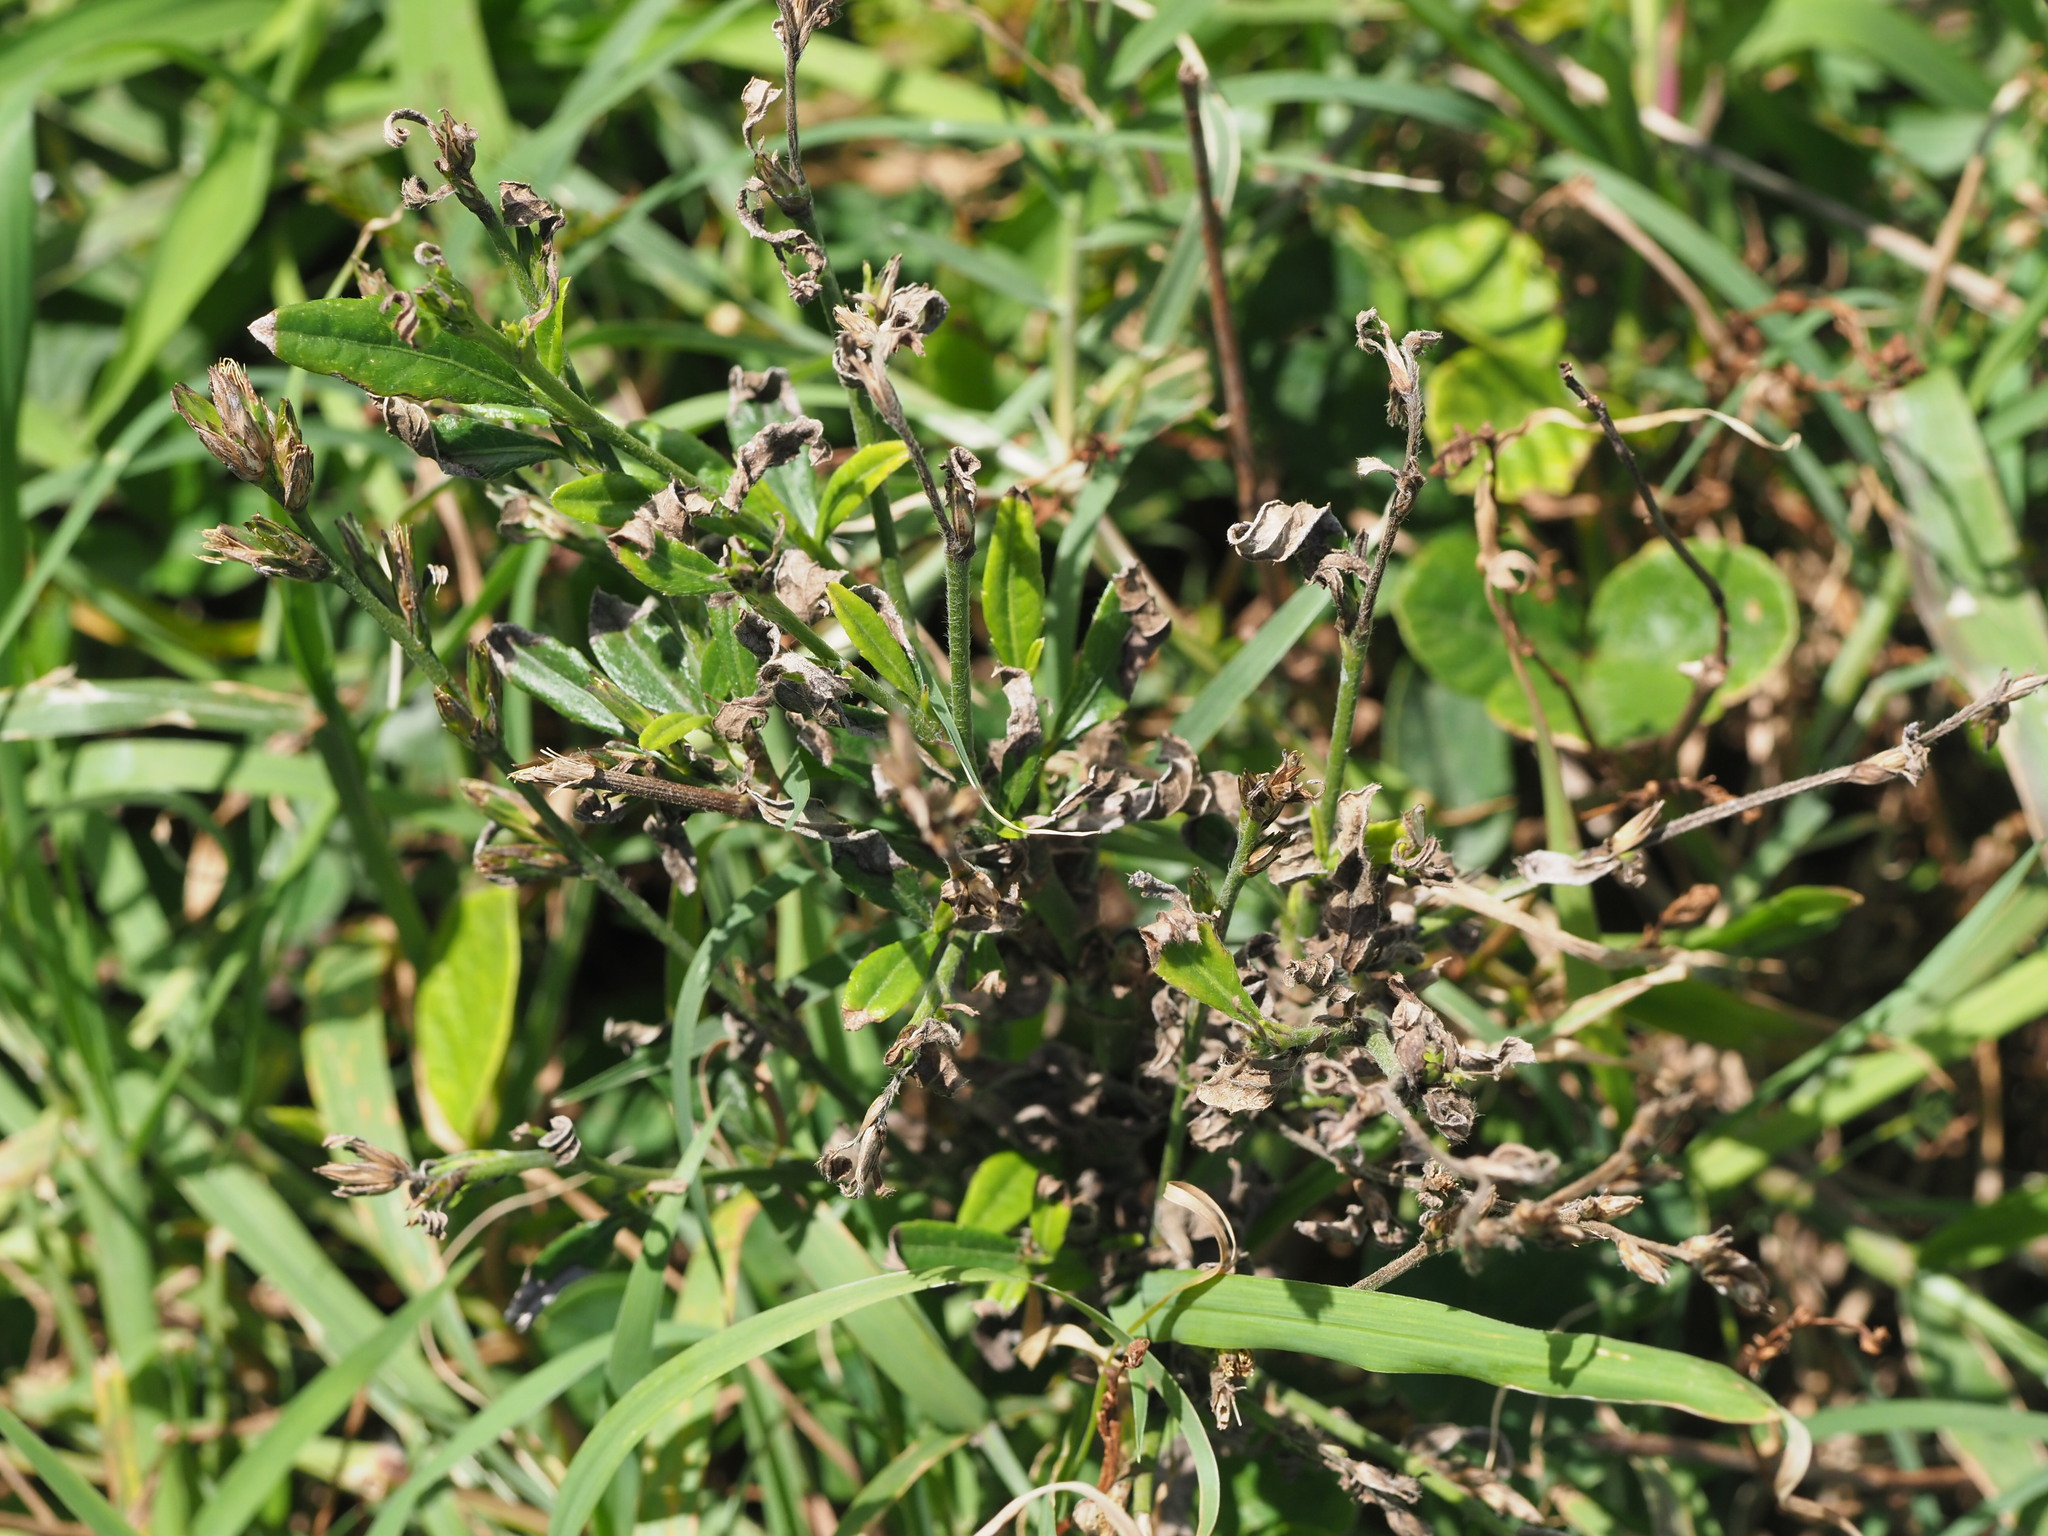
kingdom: Plantae
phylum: Tracheophyta
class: Magnoliopsida
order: Asterales
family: Asteraceae
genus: Pseudelephantopus
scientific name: Pseudelephantopus spicatus
